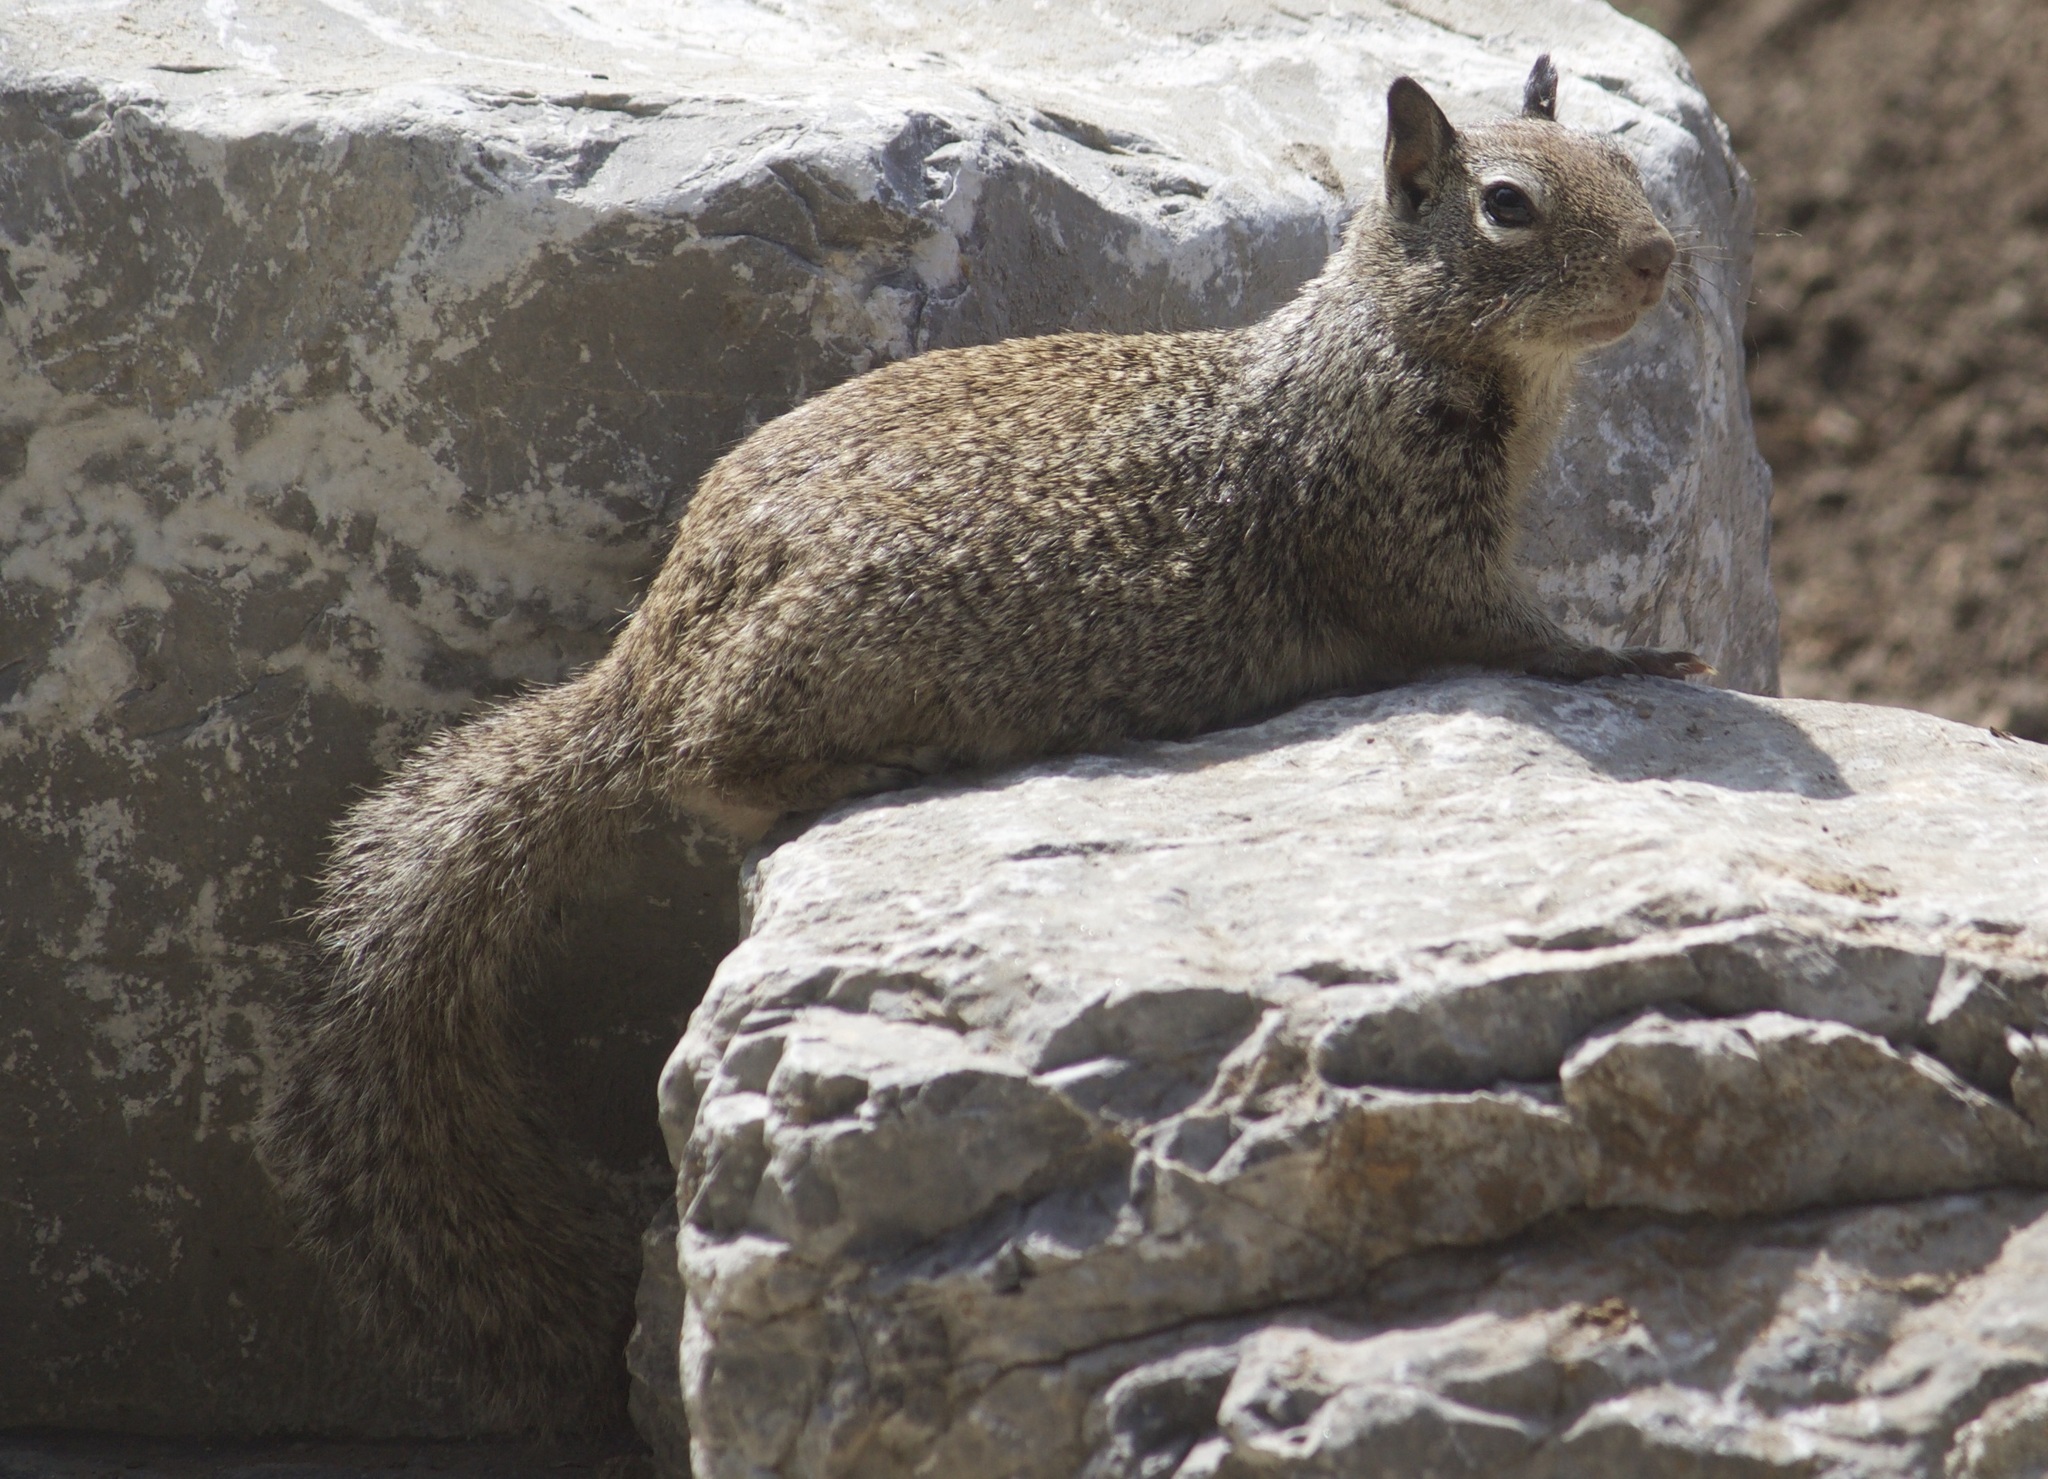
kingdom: Animalia
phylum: Chordata
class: Mammalia
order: Rodentia
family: Sciuridae
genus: Otospermophilus
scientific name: Otospermophilus beecheyi
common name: California ground squirrel
